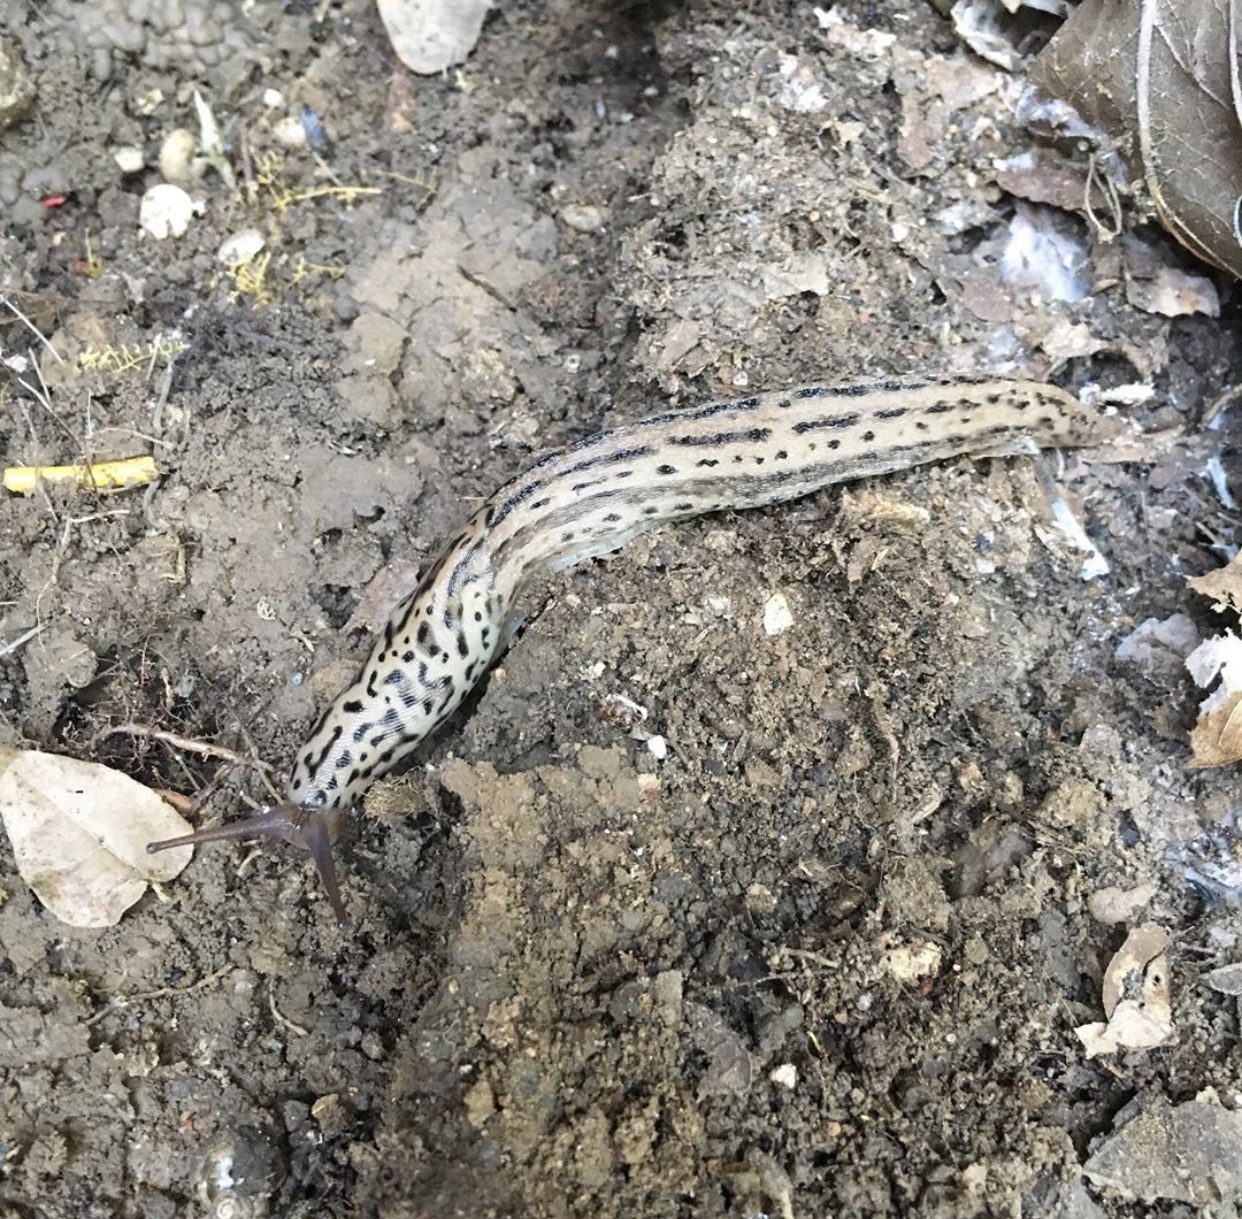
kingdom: Animalia
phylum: Mollusca
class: Gastropoda
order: Stylommatophora
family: Limacidae
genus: Limax
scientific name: Limax maximus
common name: Great grey slug
